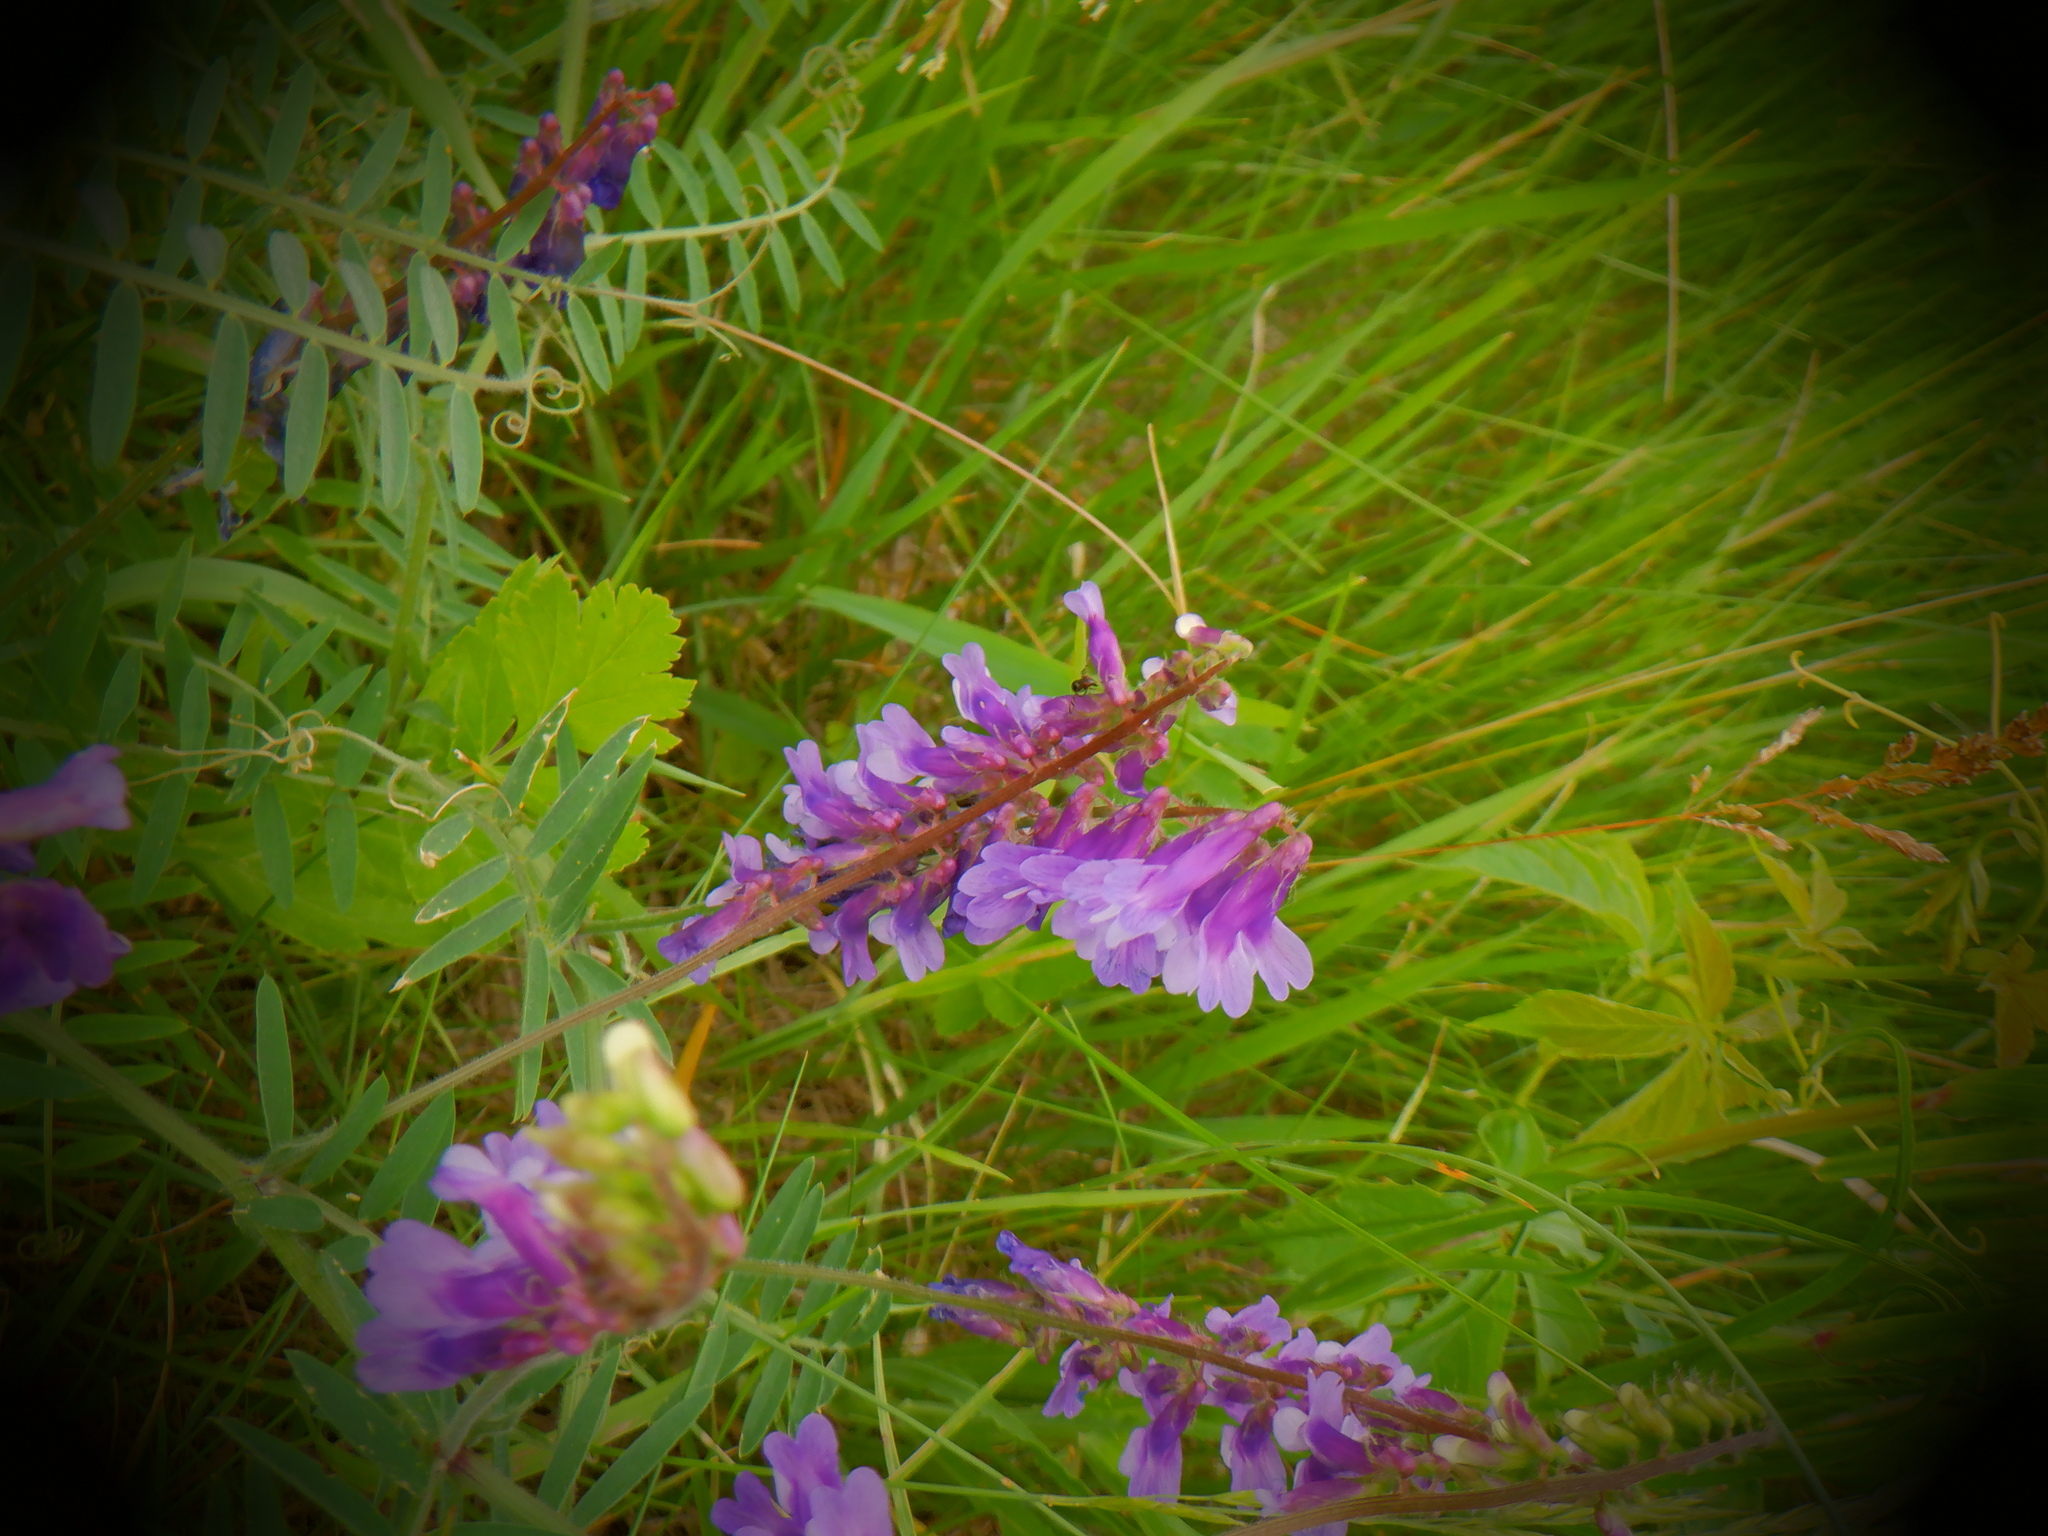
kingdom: Plantae
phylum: Tracheophyta
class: Magnoliopsida
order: Fabales
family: Fabaceae
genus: Vicia
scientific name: Vicia villosa
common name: Fodder vetch
